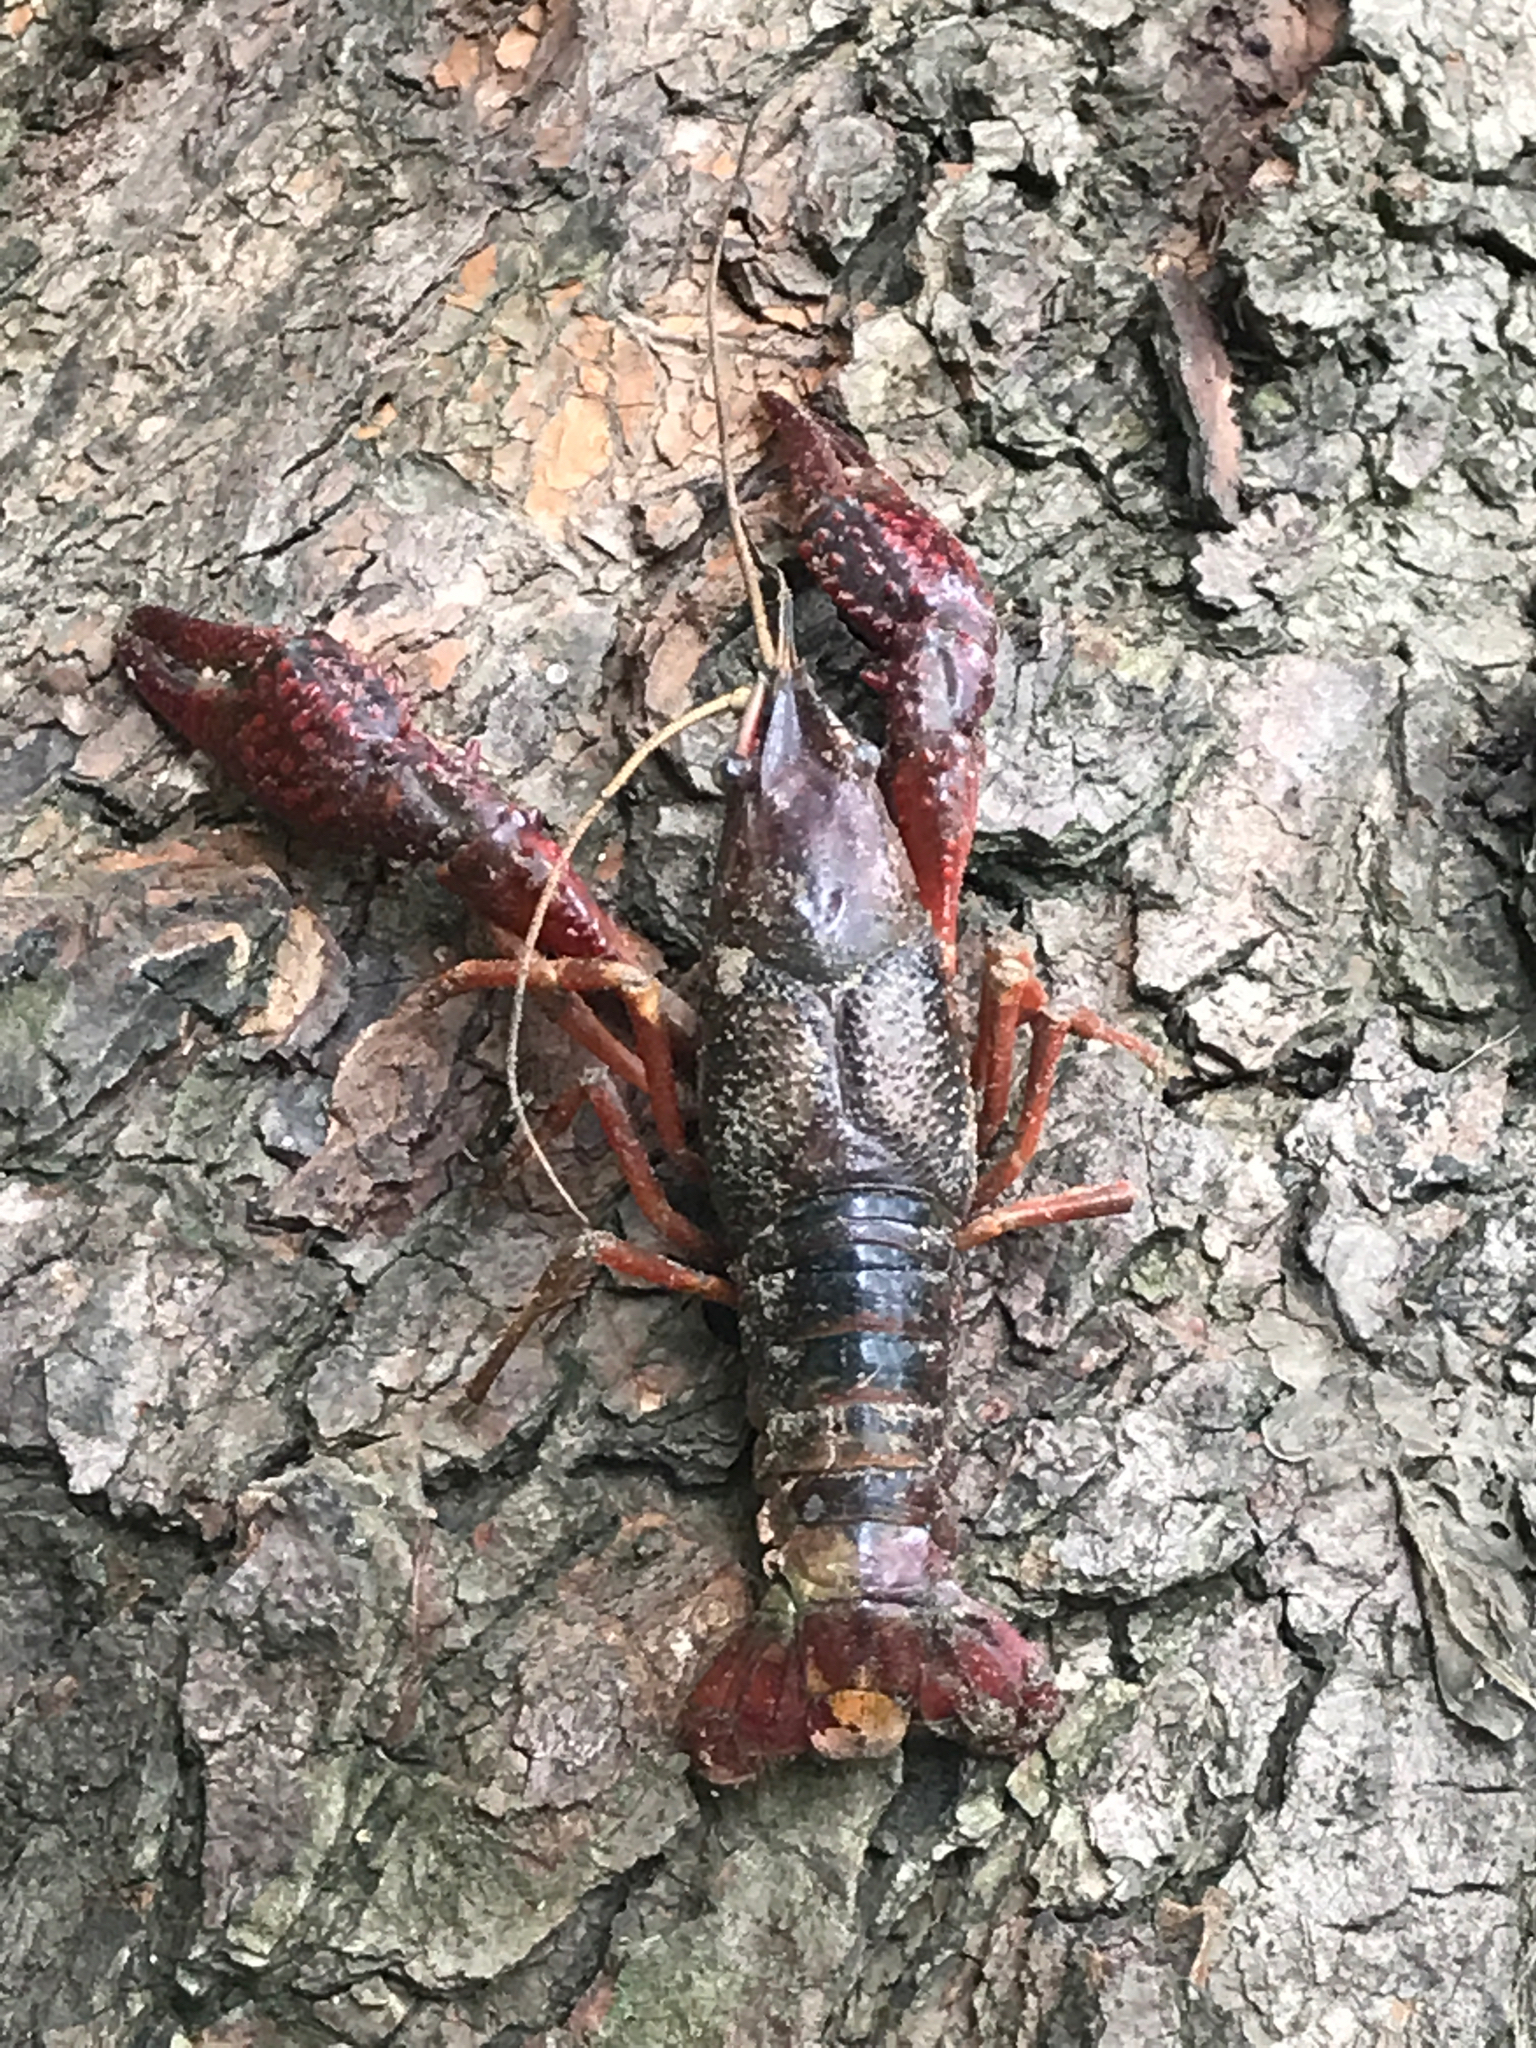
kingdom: Animalia
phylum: Arthropoda
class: Malacostraca
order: Decapoda
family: Cambaridae
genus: Procambarus
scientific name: Procambarus clarkii
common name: Red swamp crayfish
